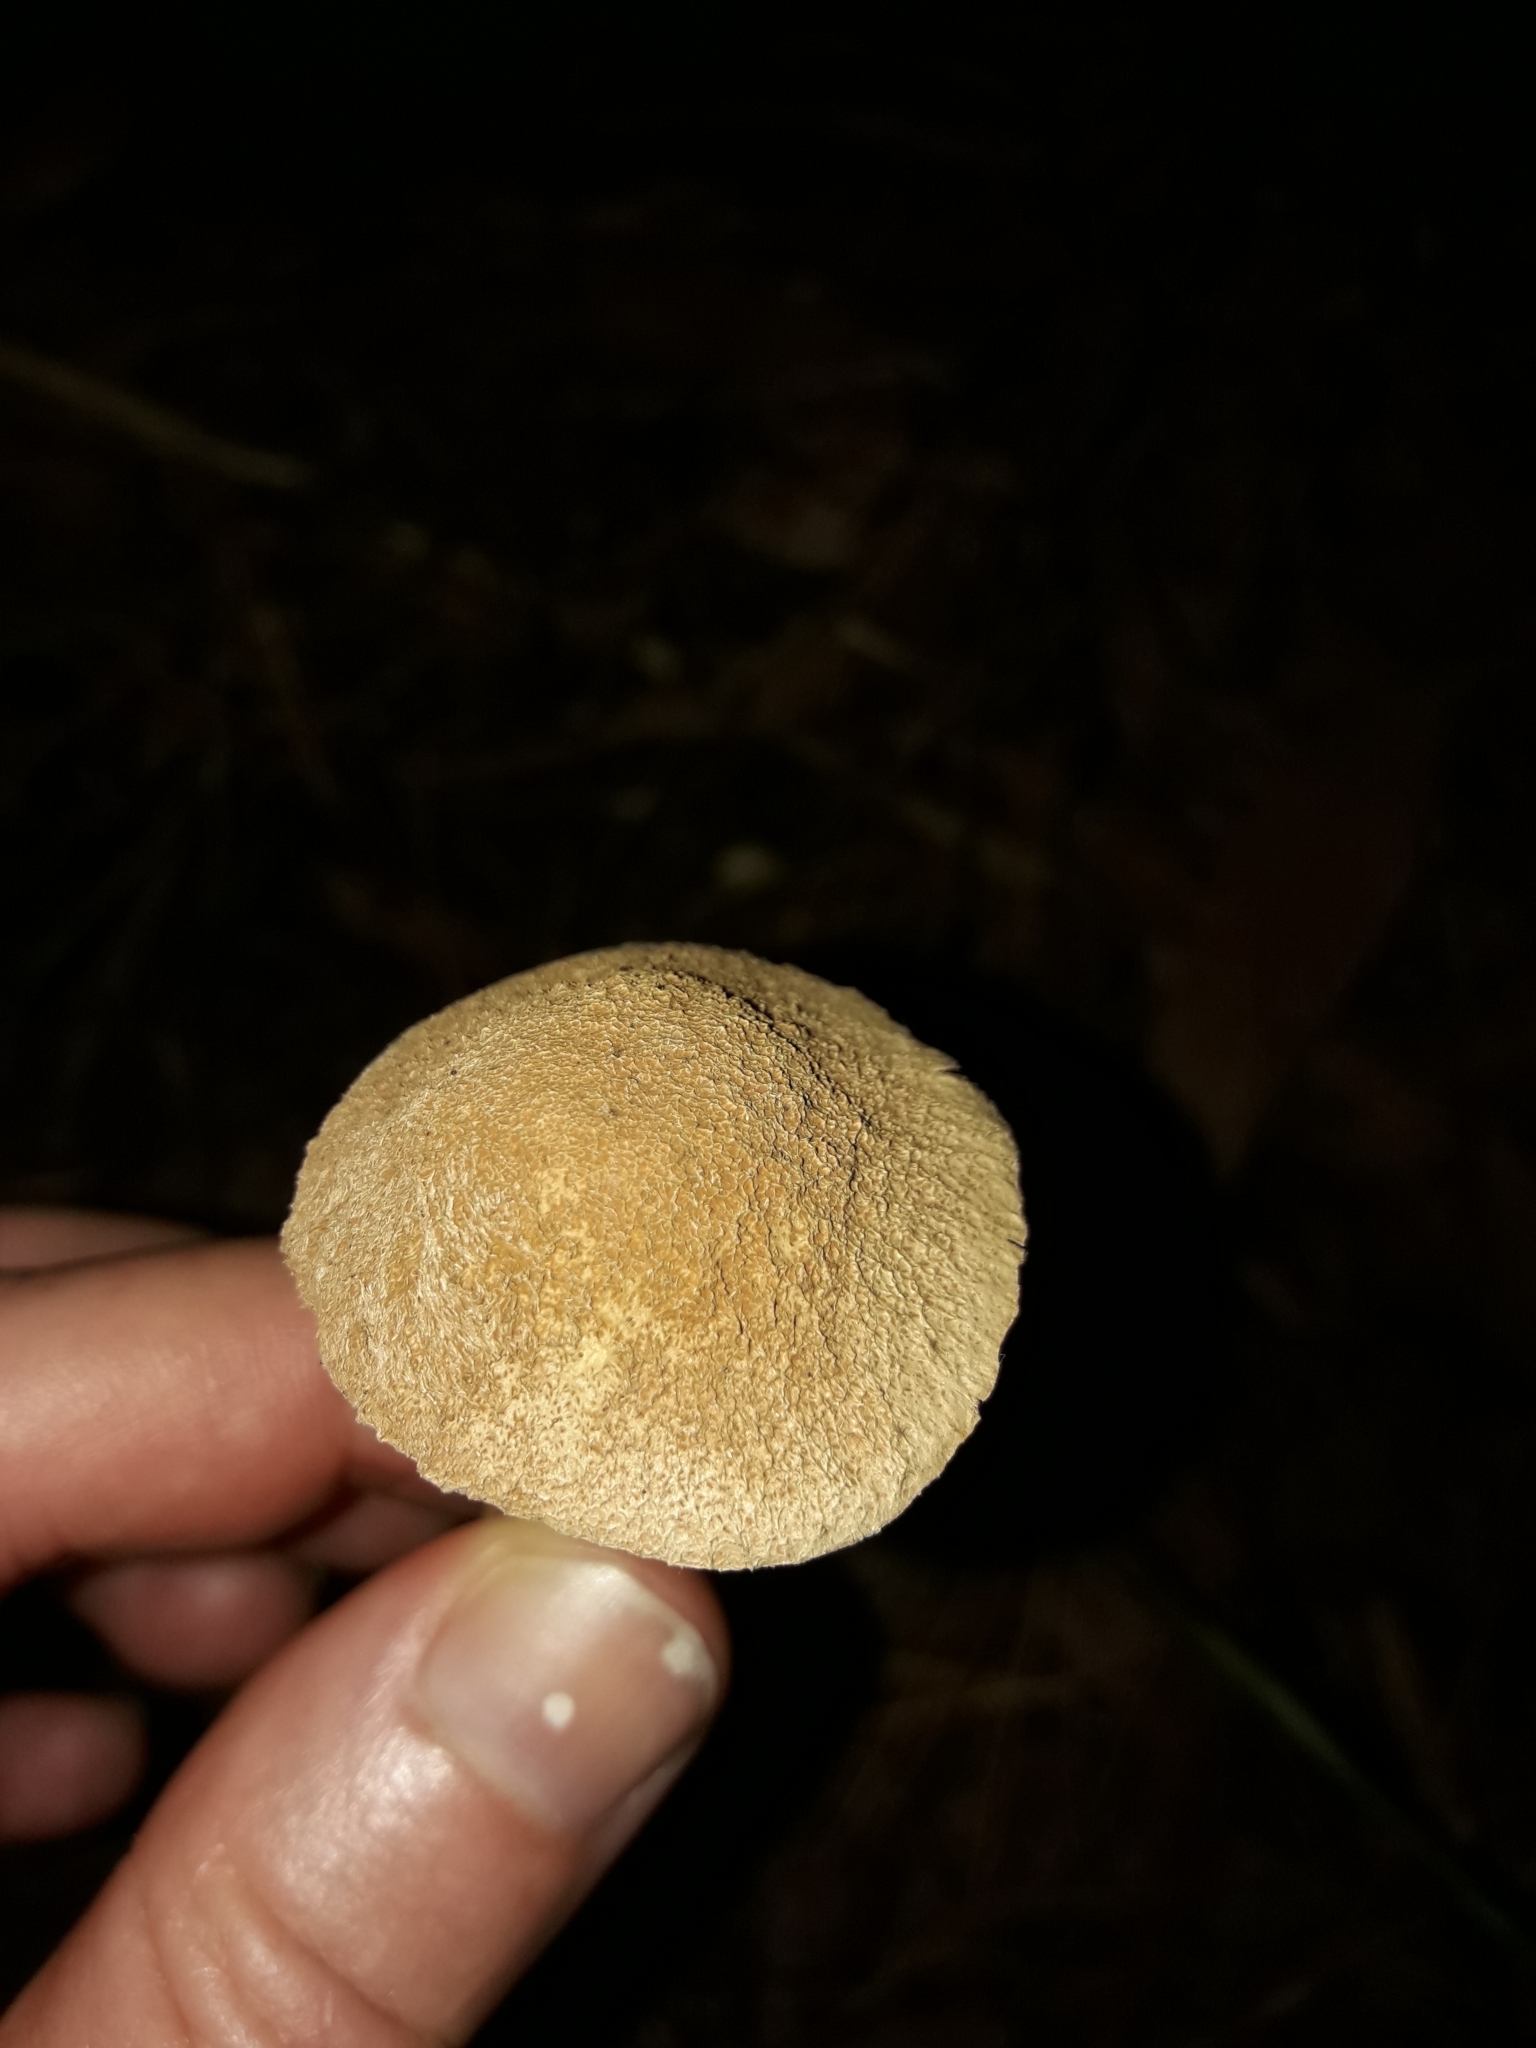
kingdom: Fungi
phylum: Basidiomycota
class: Agaricomycetes
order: Agaricales
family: Agaricaceae
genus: Battarrea
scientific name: Battarrea phalloides
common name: Sandy stiltball
